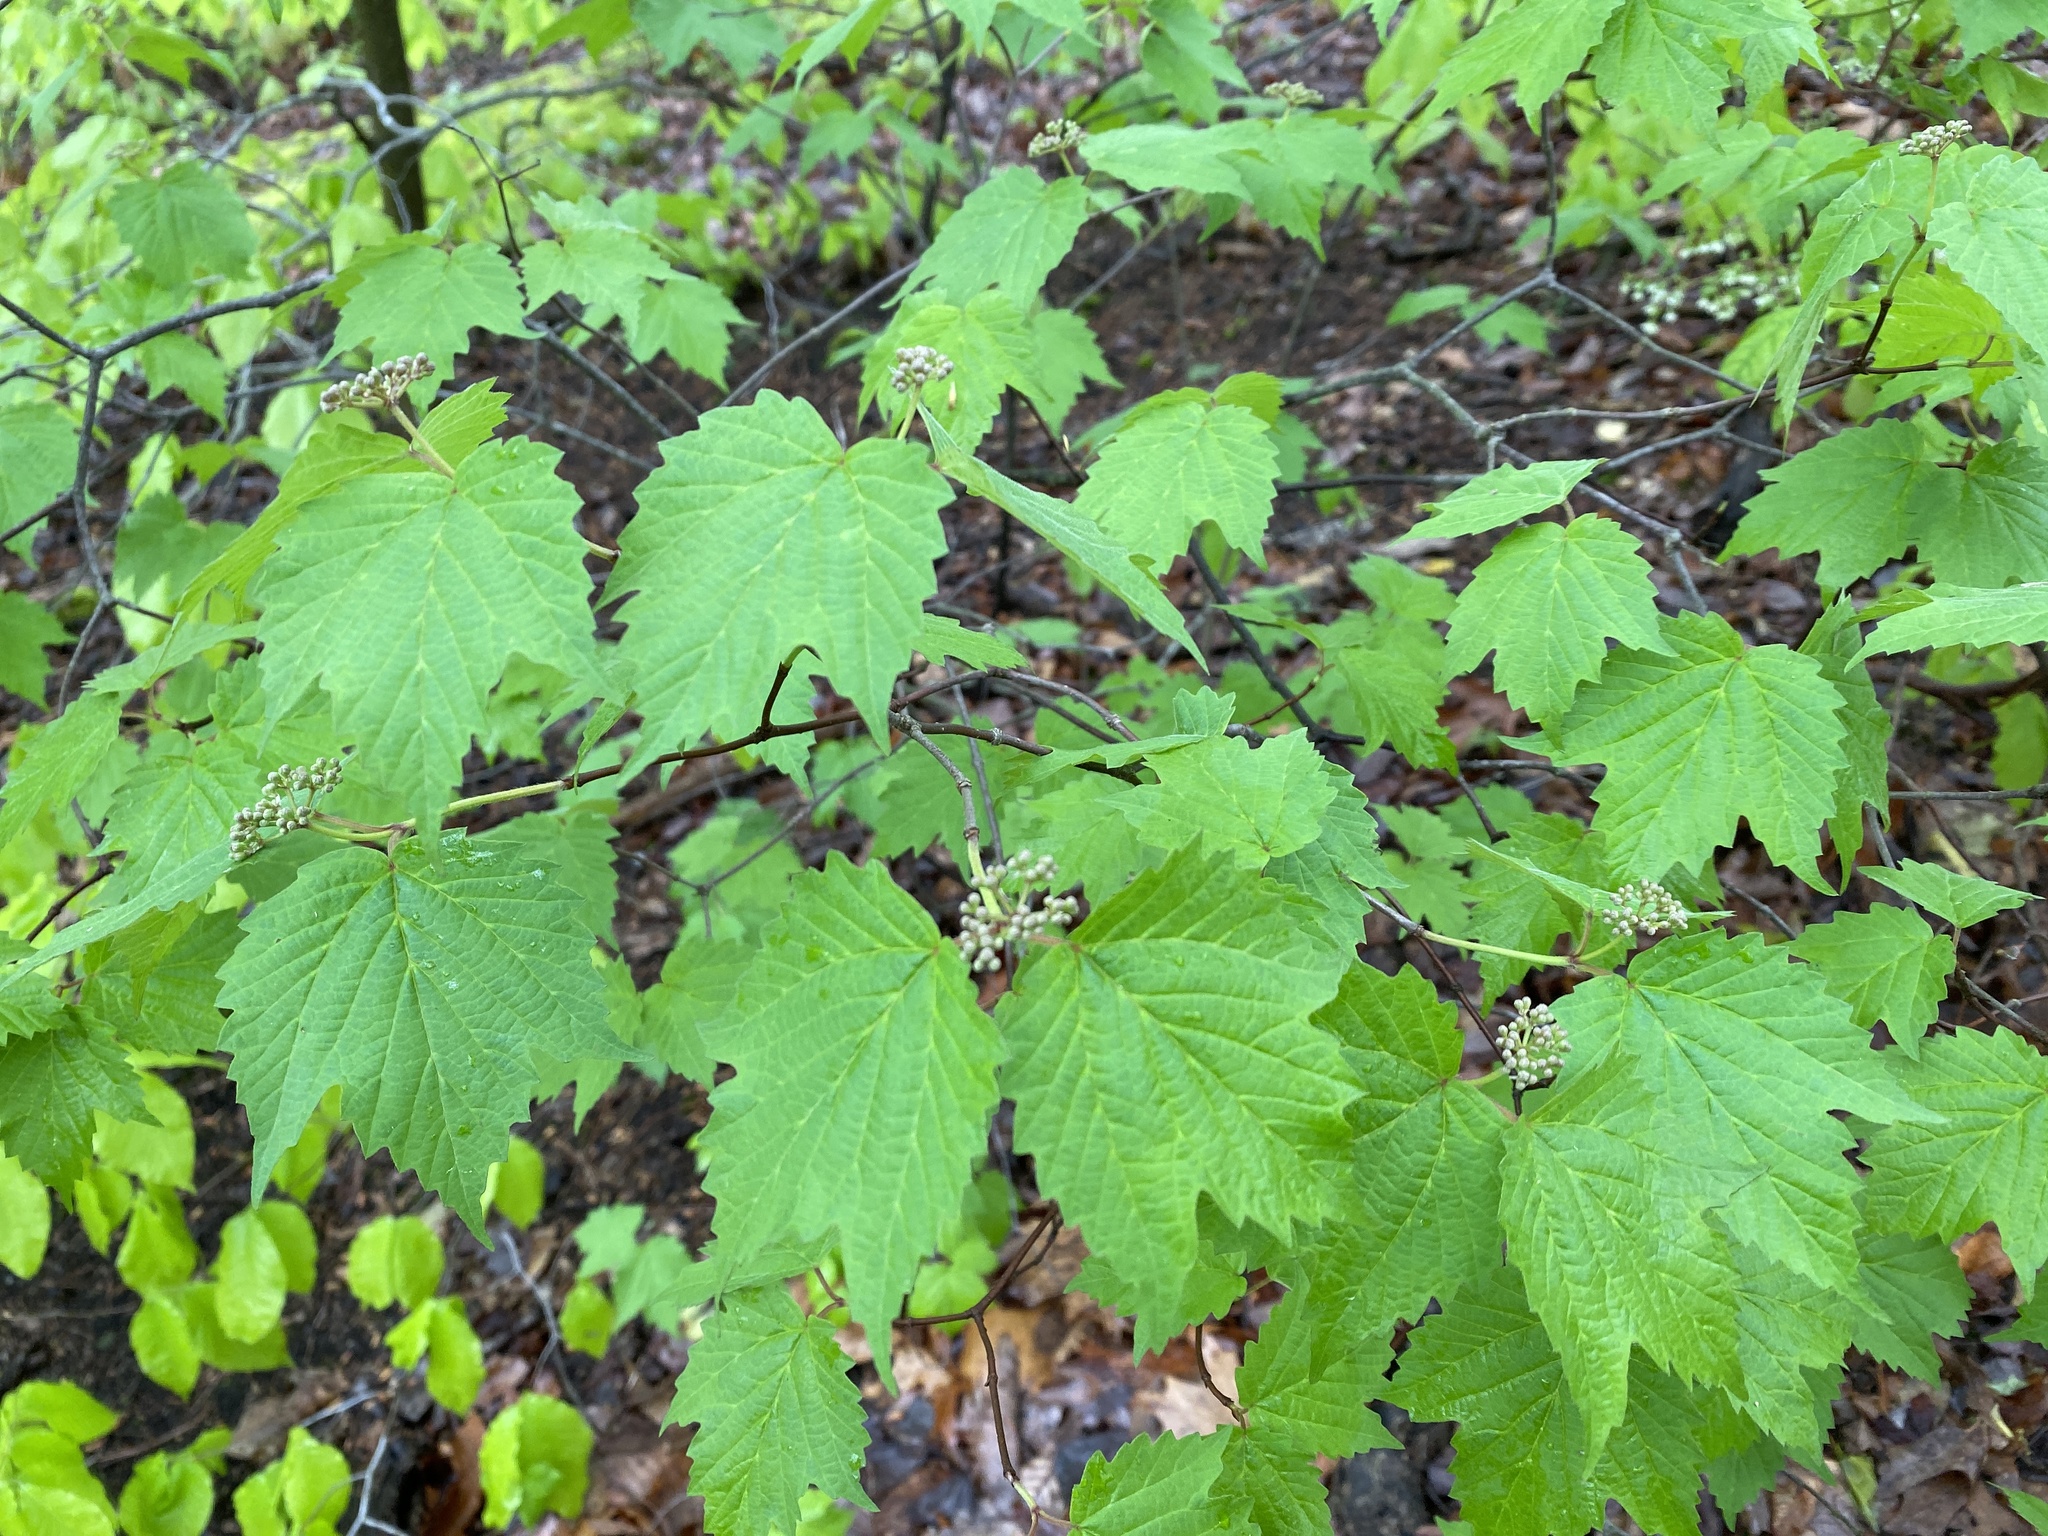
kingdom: Plantae
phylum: Tracheophyta
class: Magnoliopsida
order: Dipsacales
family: Viburnaceae
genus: Viburnum
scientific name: Viburnum acerifolium
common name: Dockmackie
